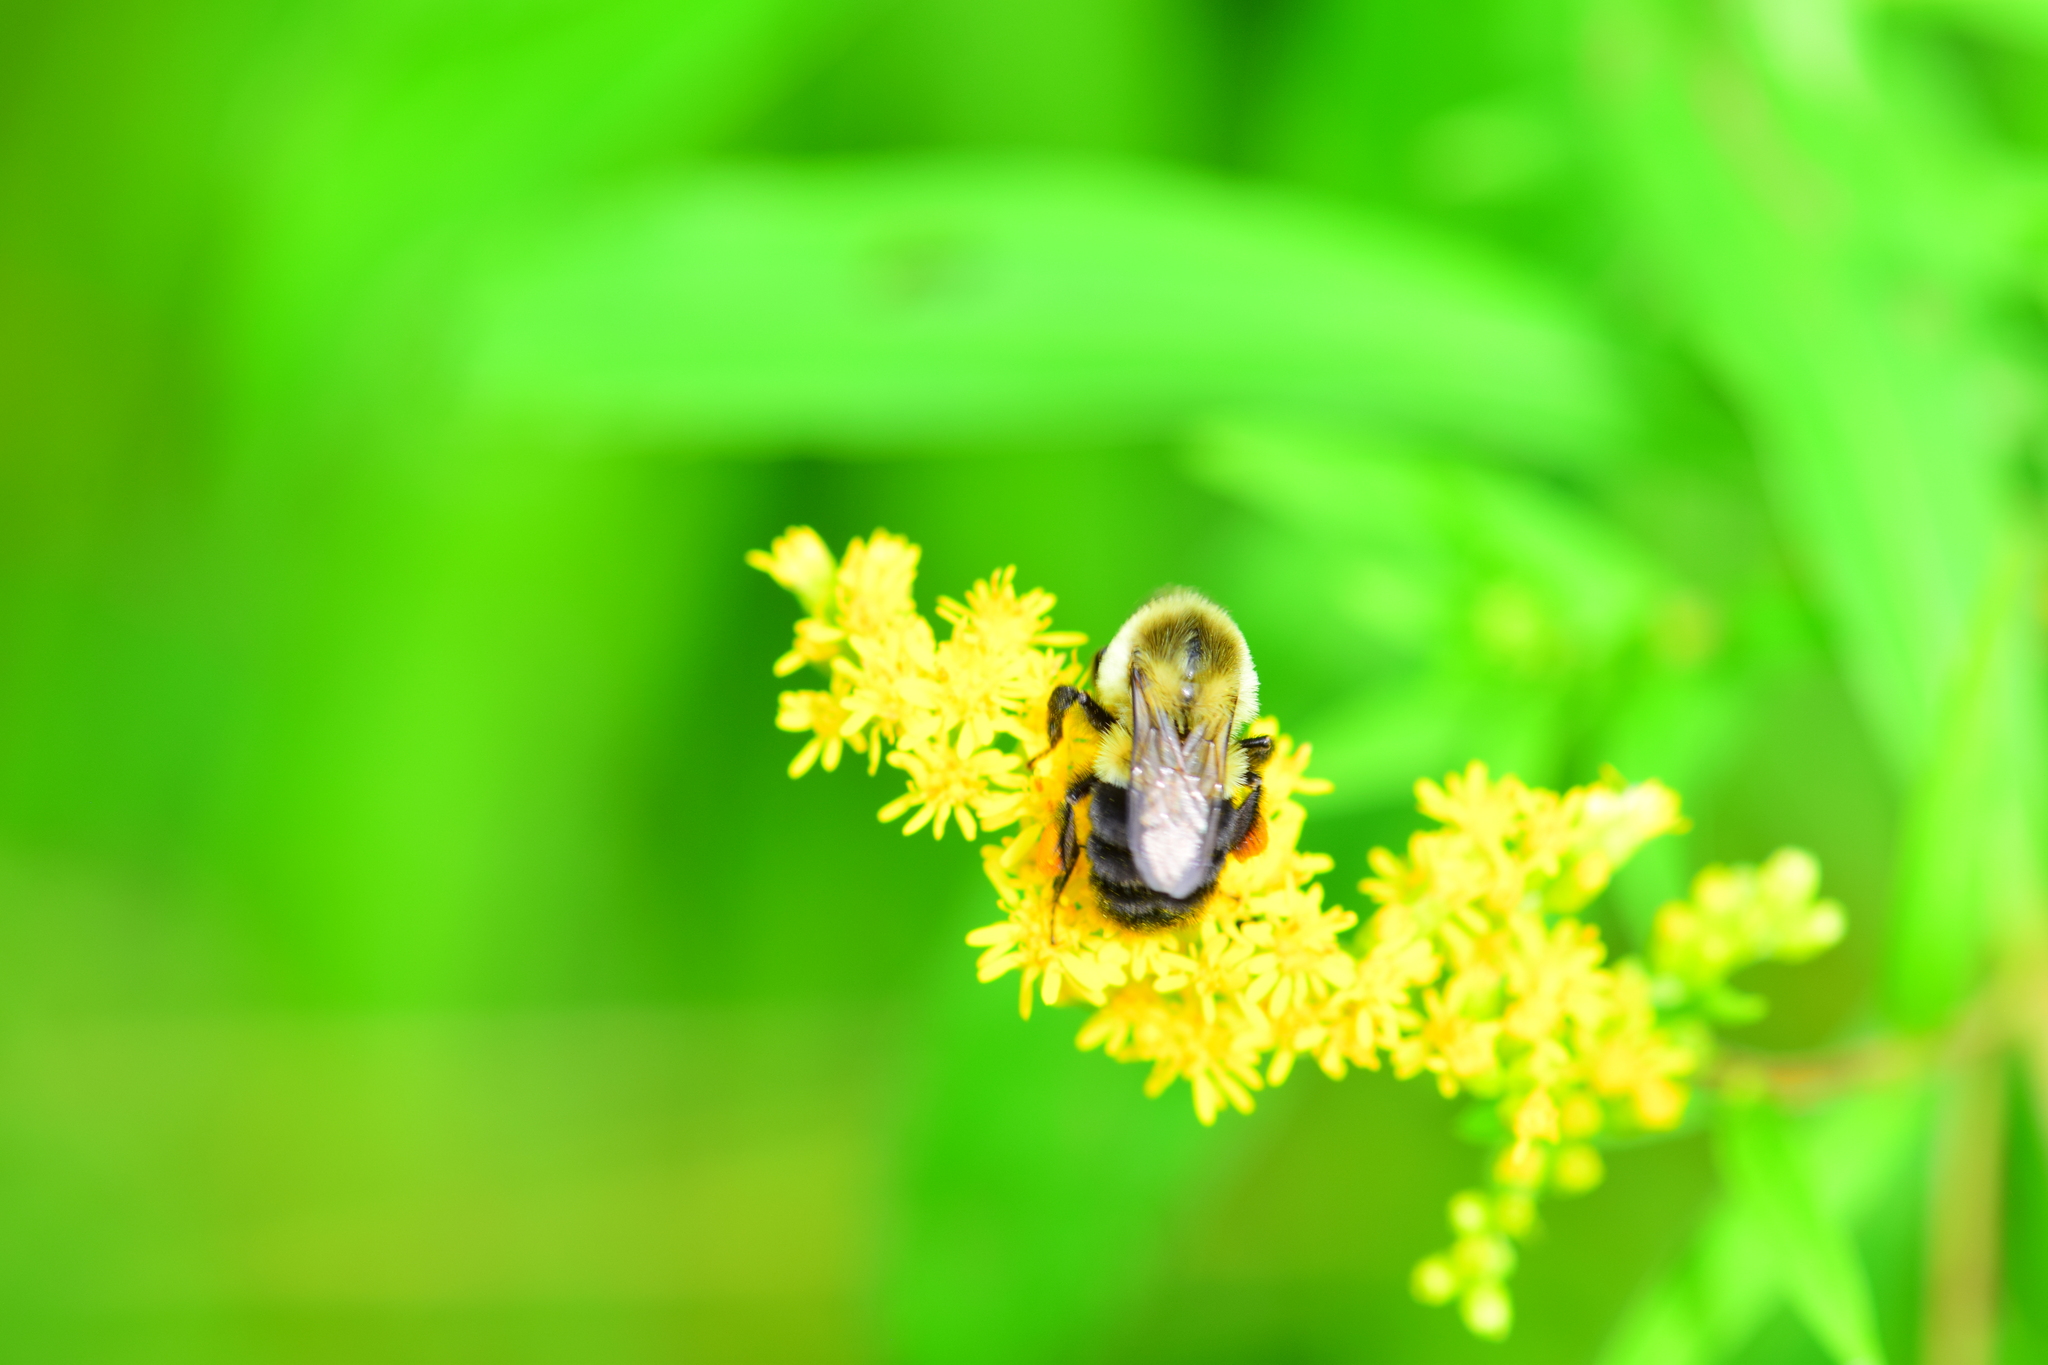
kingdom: Animalia
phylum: Arthropoda
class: Insecta
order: Hymenoptera
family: Apidae
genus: Bombus
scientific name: Bombus impatiens
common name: Common eastern bumble bee
